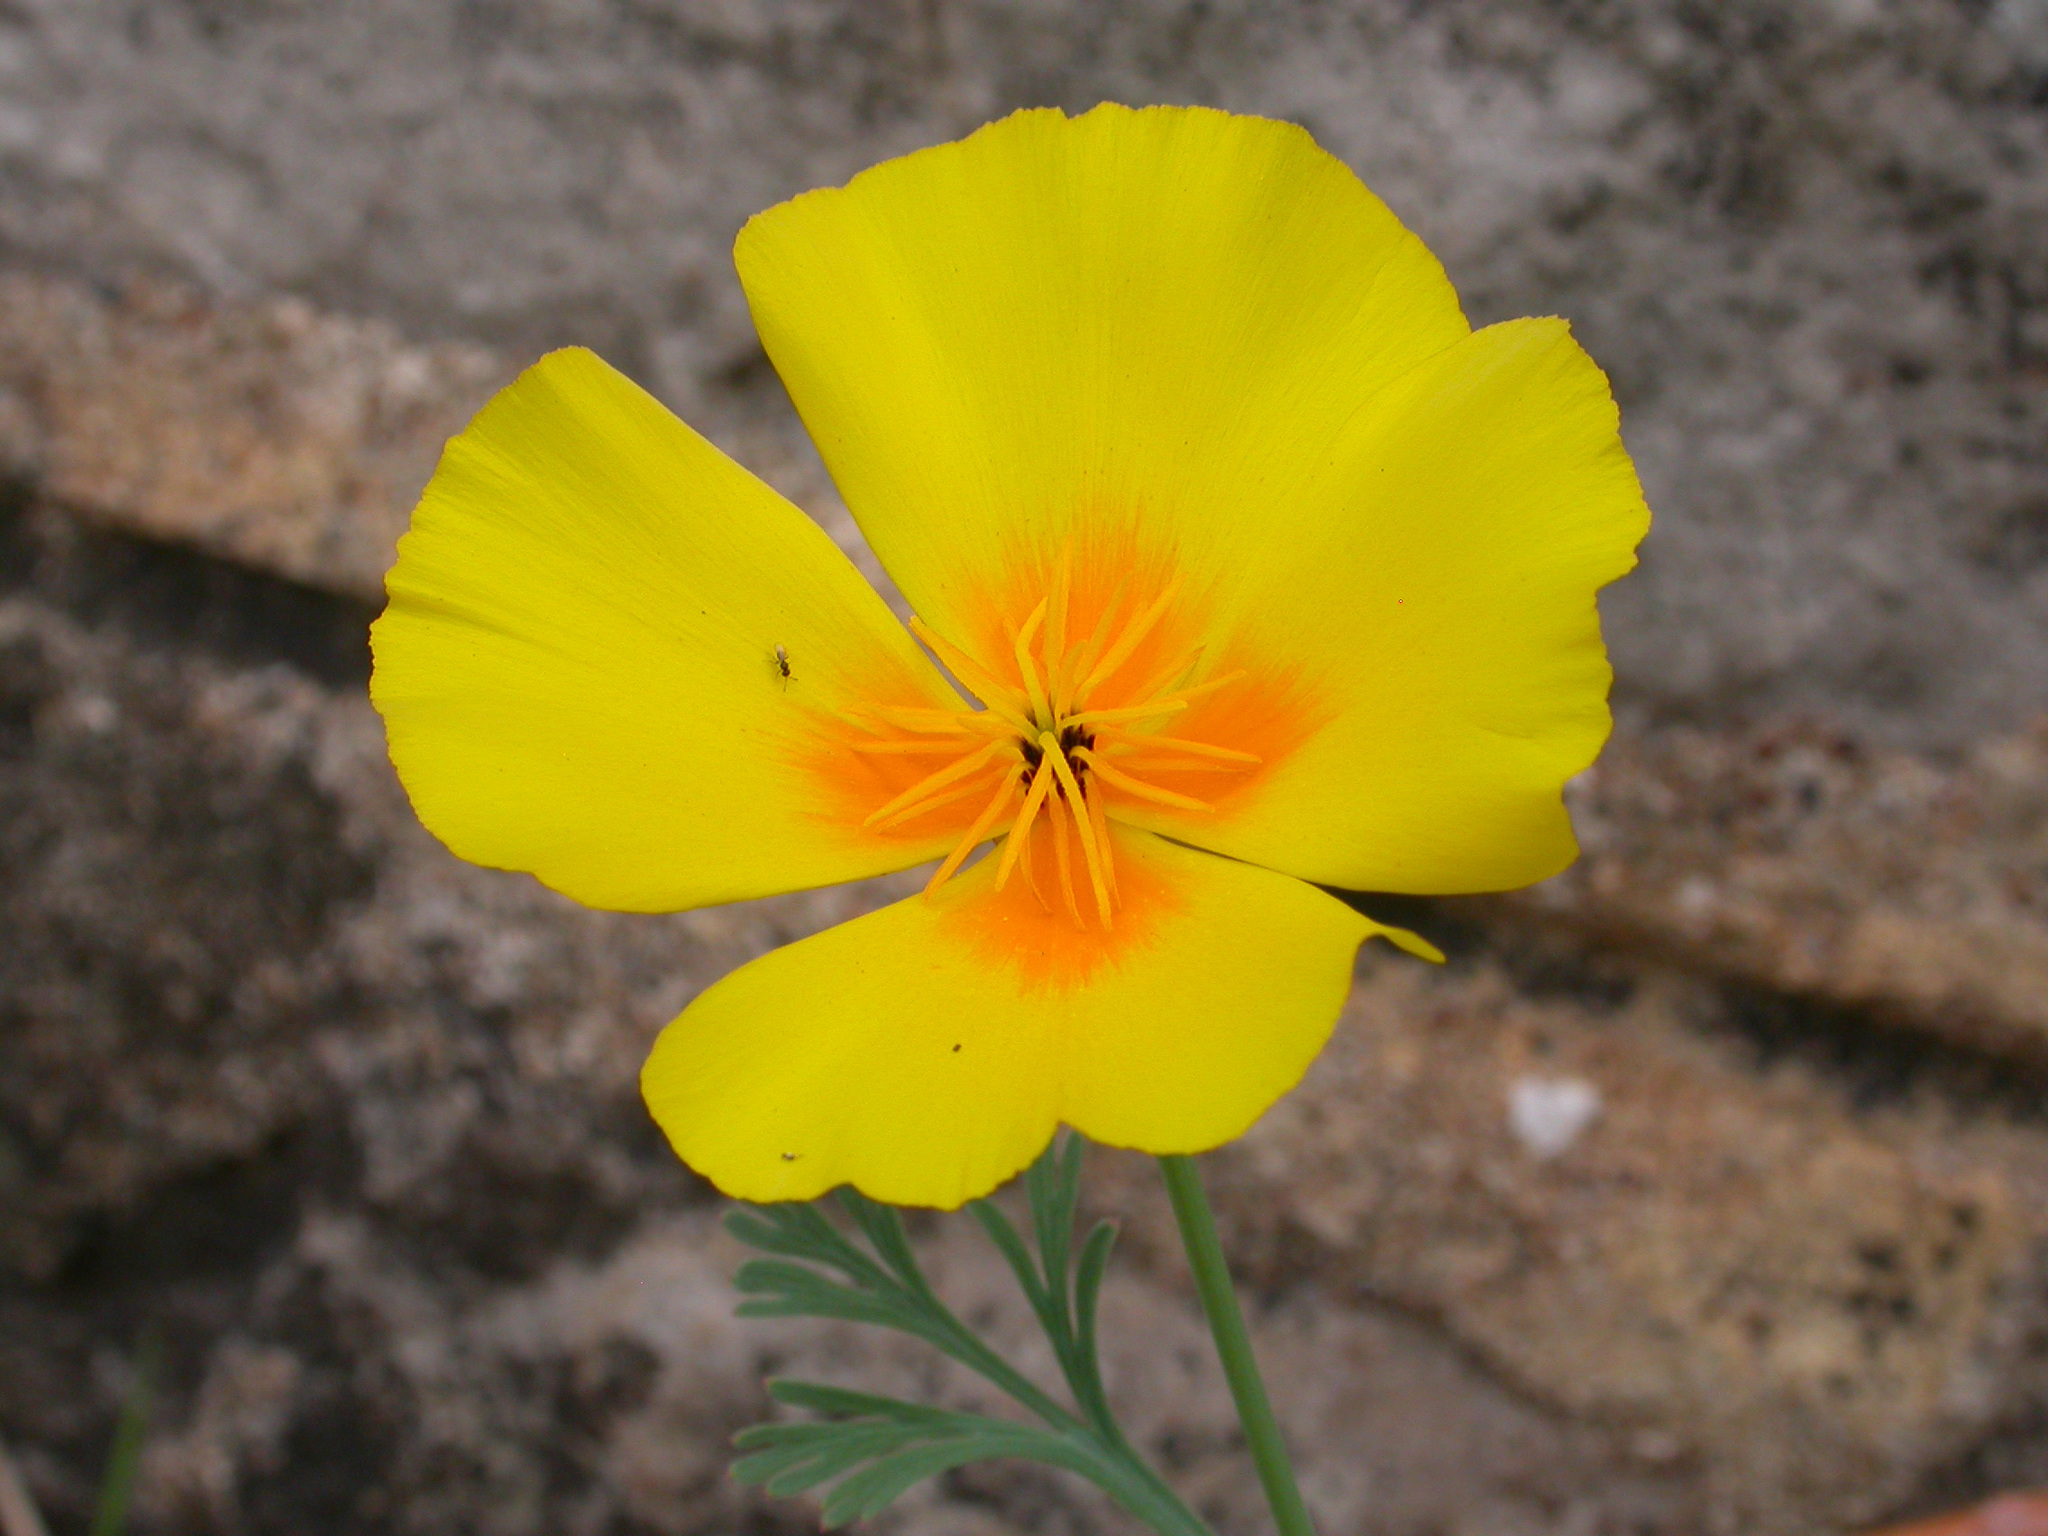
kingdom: Plantae
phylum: Tracheophyta
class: Magnoliopsida
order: Ranunculales
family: Papaveraceae
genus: Eschscholzia
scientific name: Eschscholzia californica
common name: California poppy
